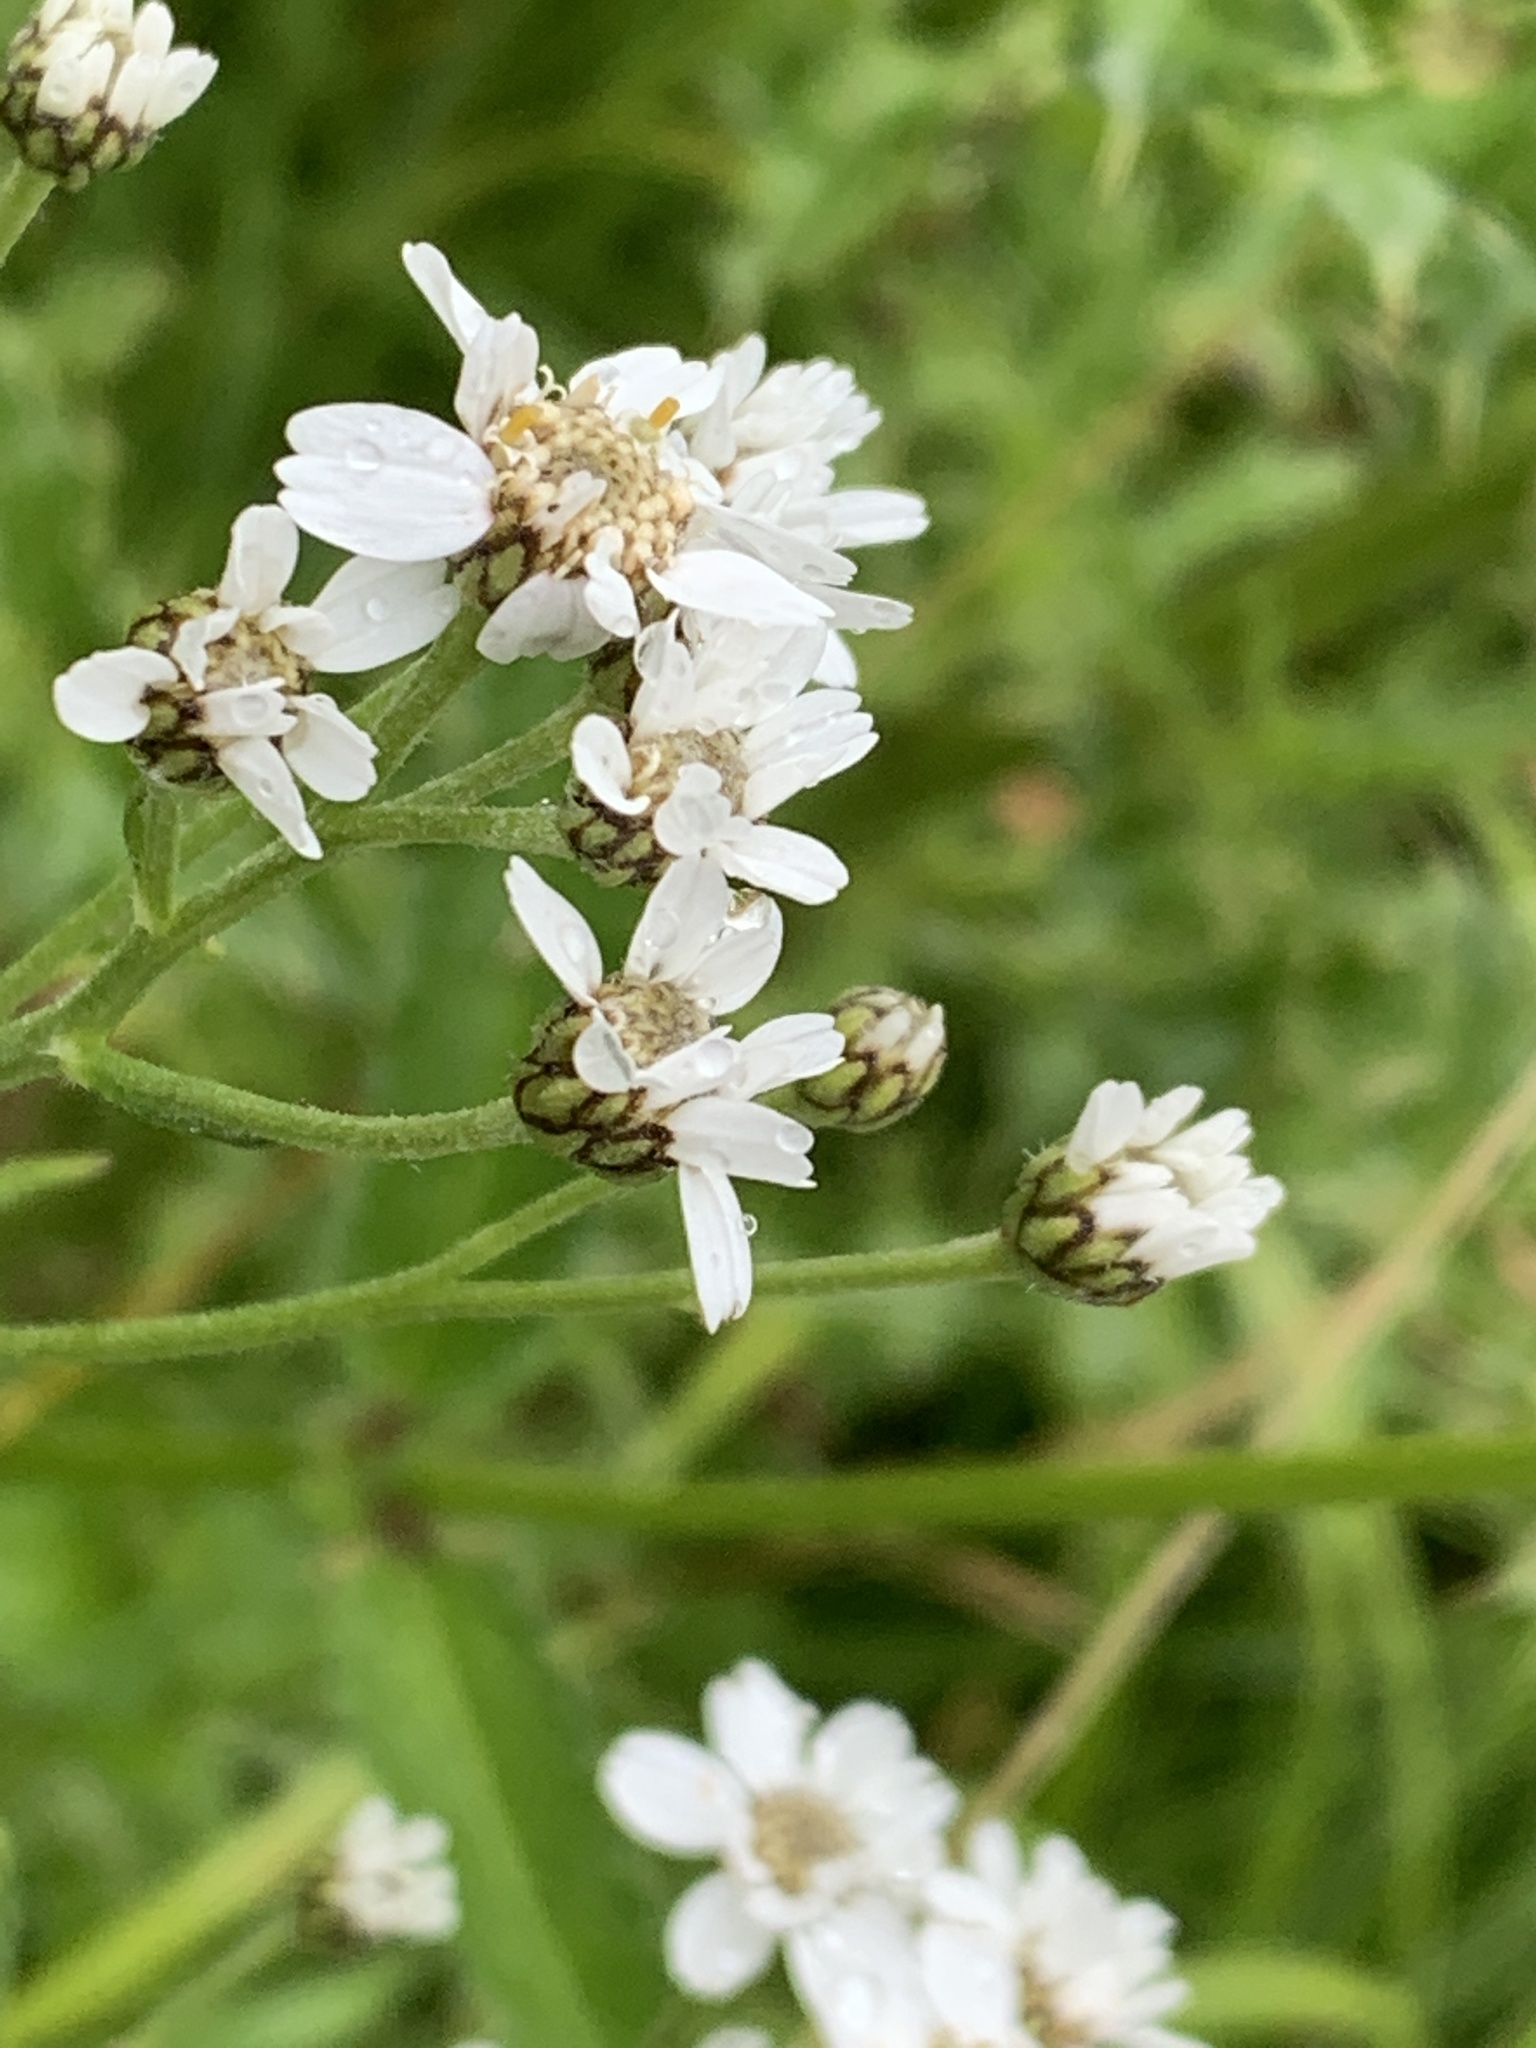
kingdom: Plantae
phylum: Tracheophyta
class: Magnoliopsida
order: Asterales
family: Asteraceae
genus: Achillea
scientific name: Achillea ptarmica
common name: Sneezeweed
